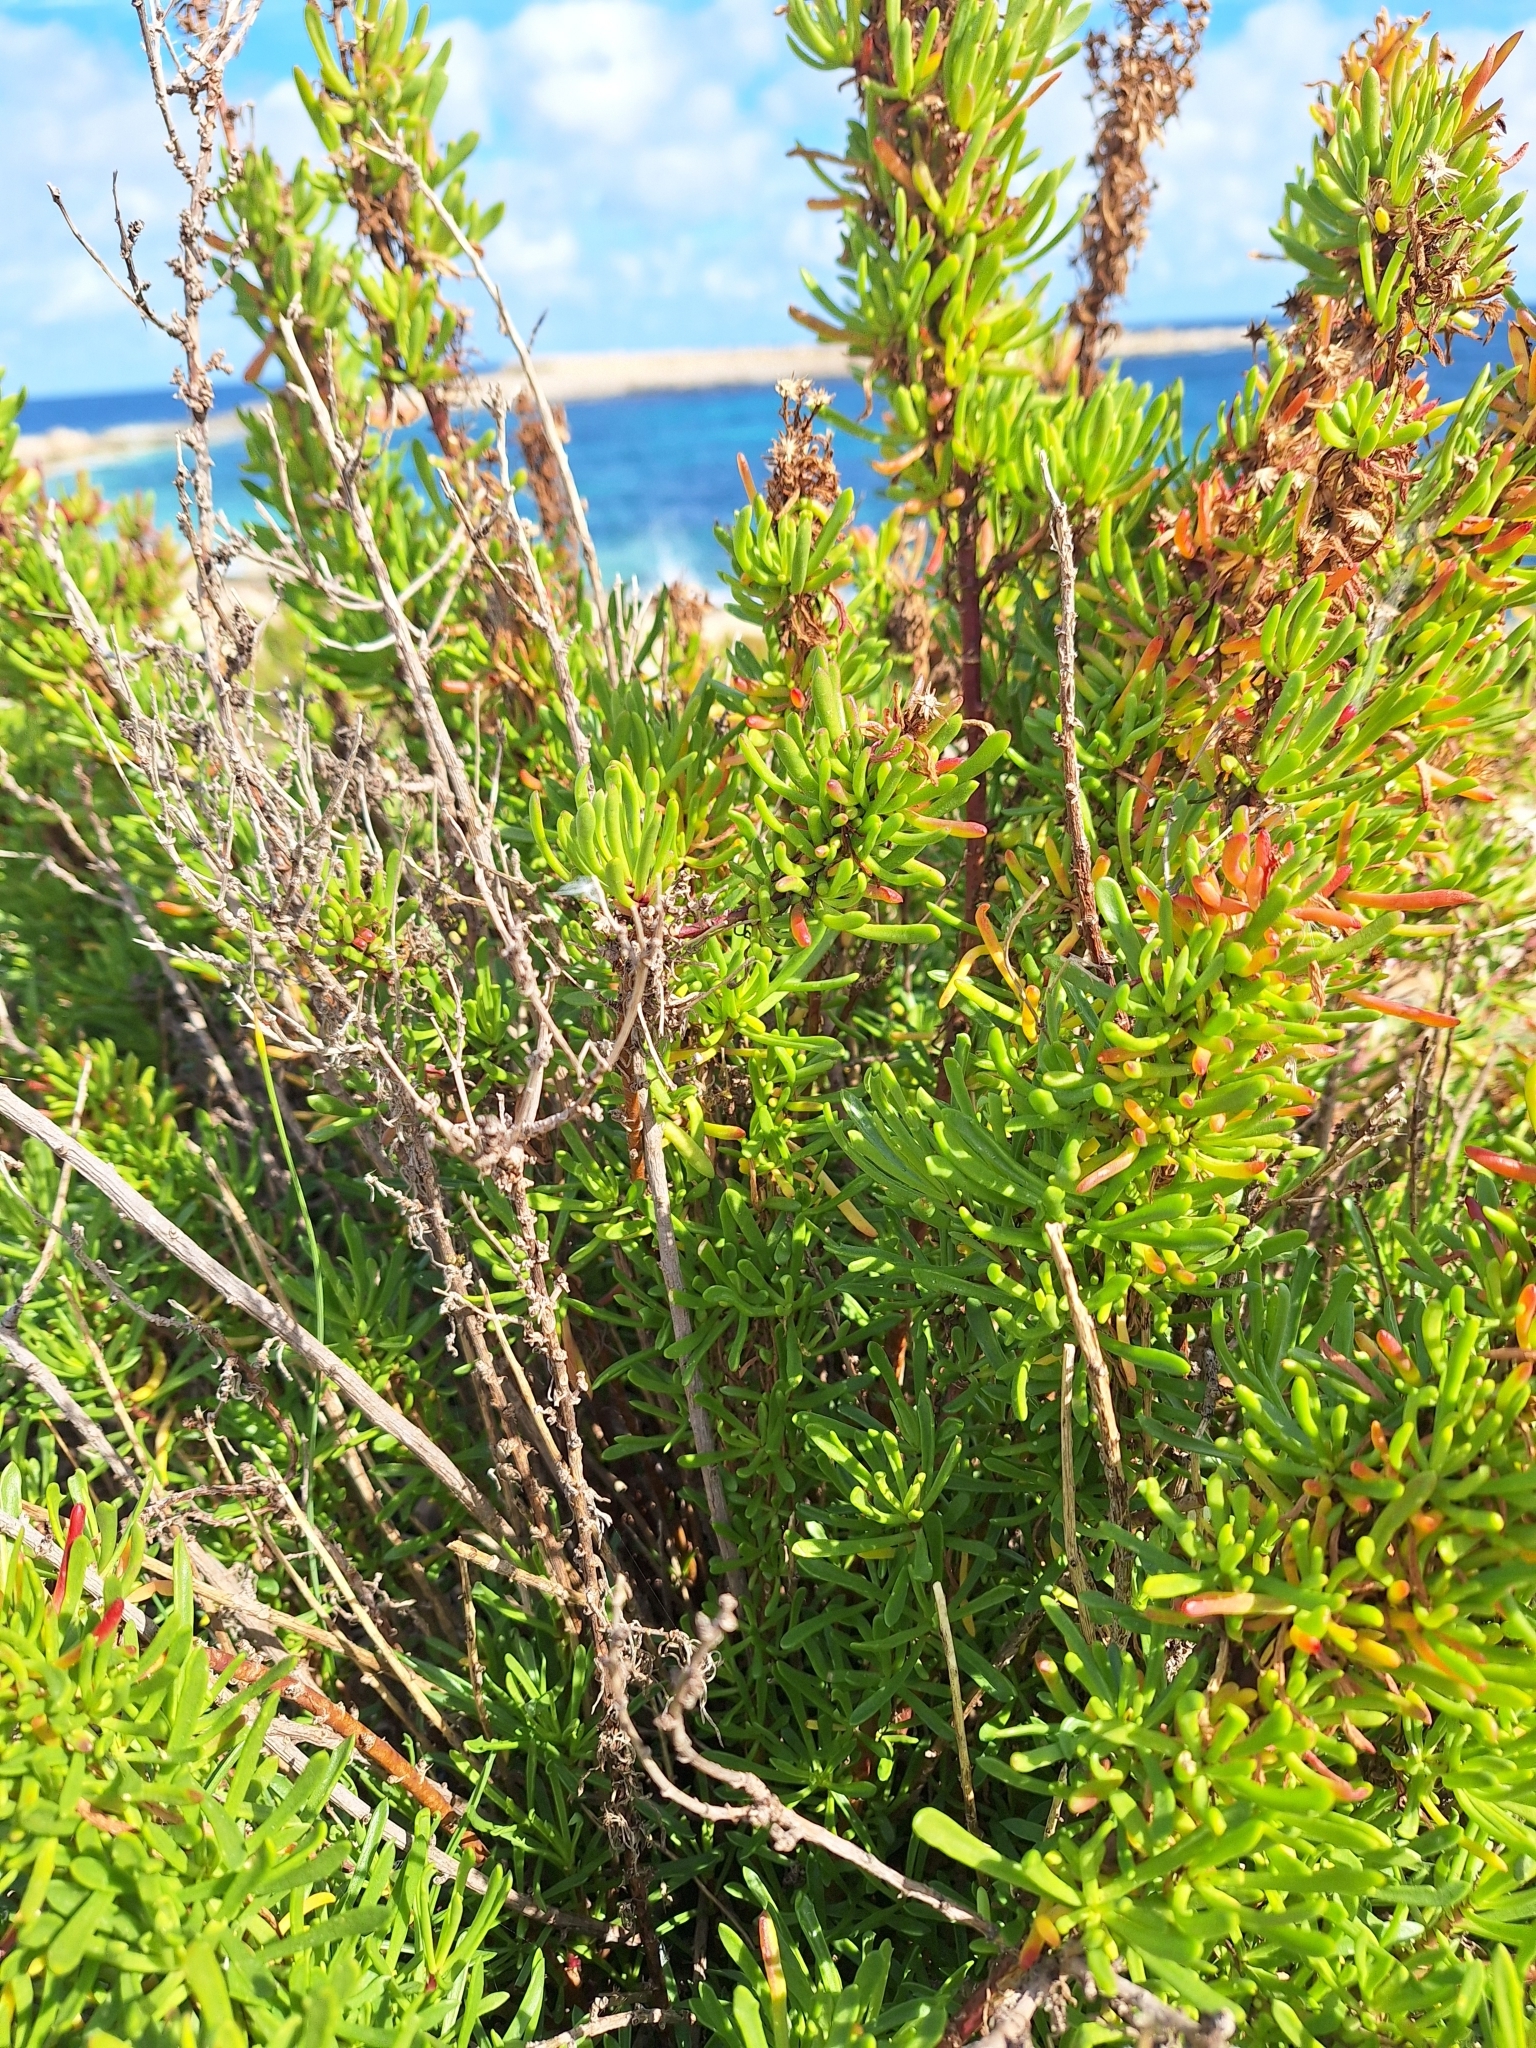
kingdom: Plantae
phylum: Tracheophyta
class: Magnoliopsida
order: Asterales
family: Asteraceae
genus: Limbarda
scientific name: Limbarda crithmoides
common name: Golden samphire
